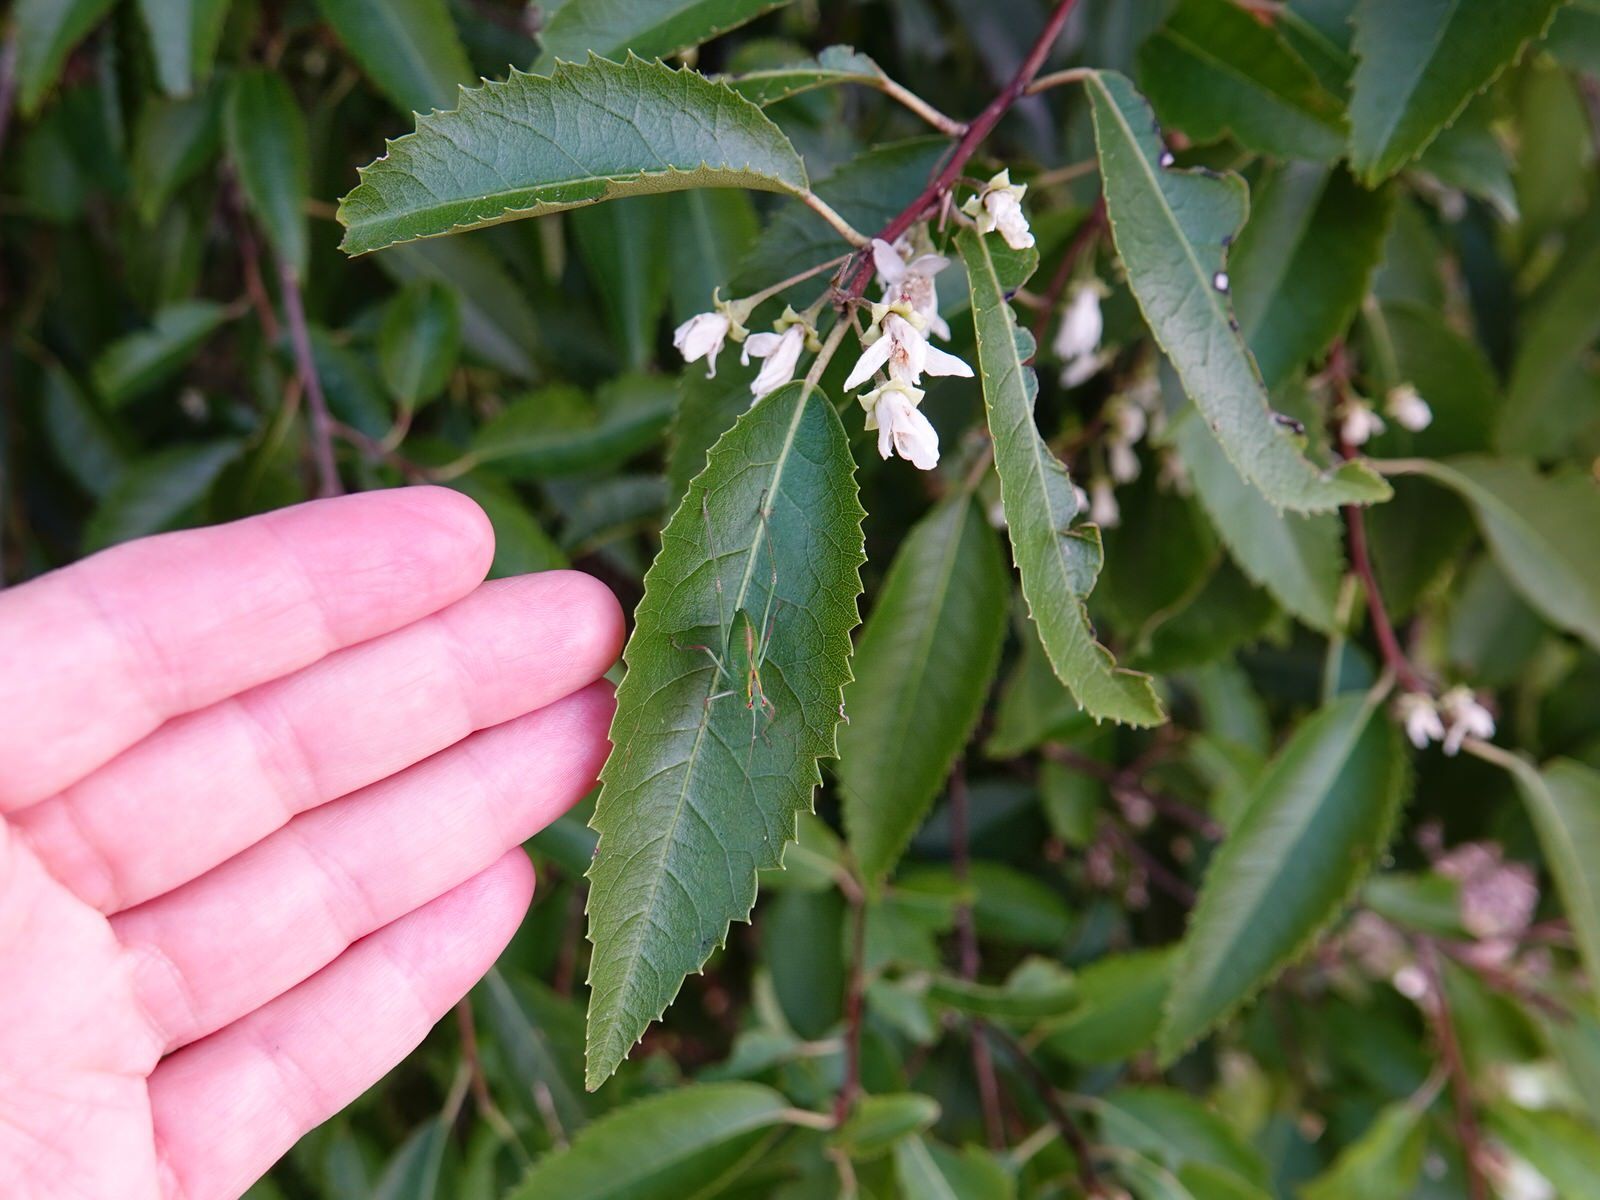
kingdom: Animalia
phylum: Arthropoda
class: Insecta
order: Orthoptera
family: Tettigoniidae
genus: Caedicia
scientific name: Caedicia simplex
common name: Common garden katydid
